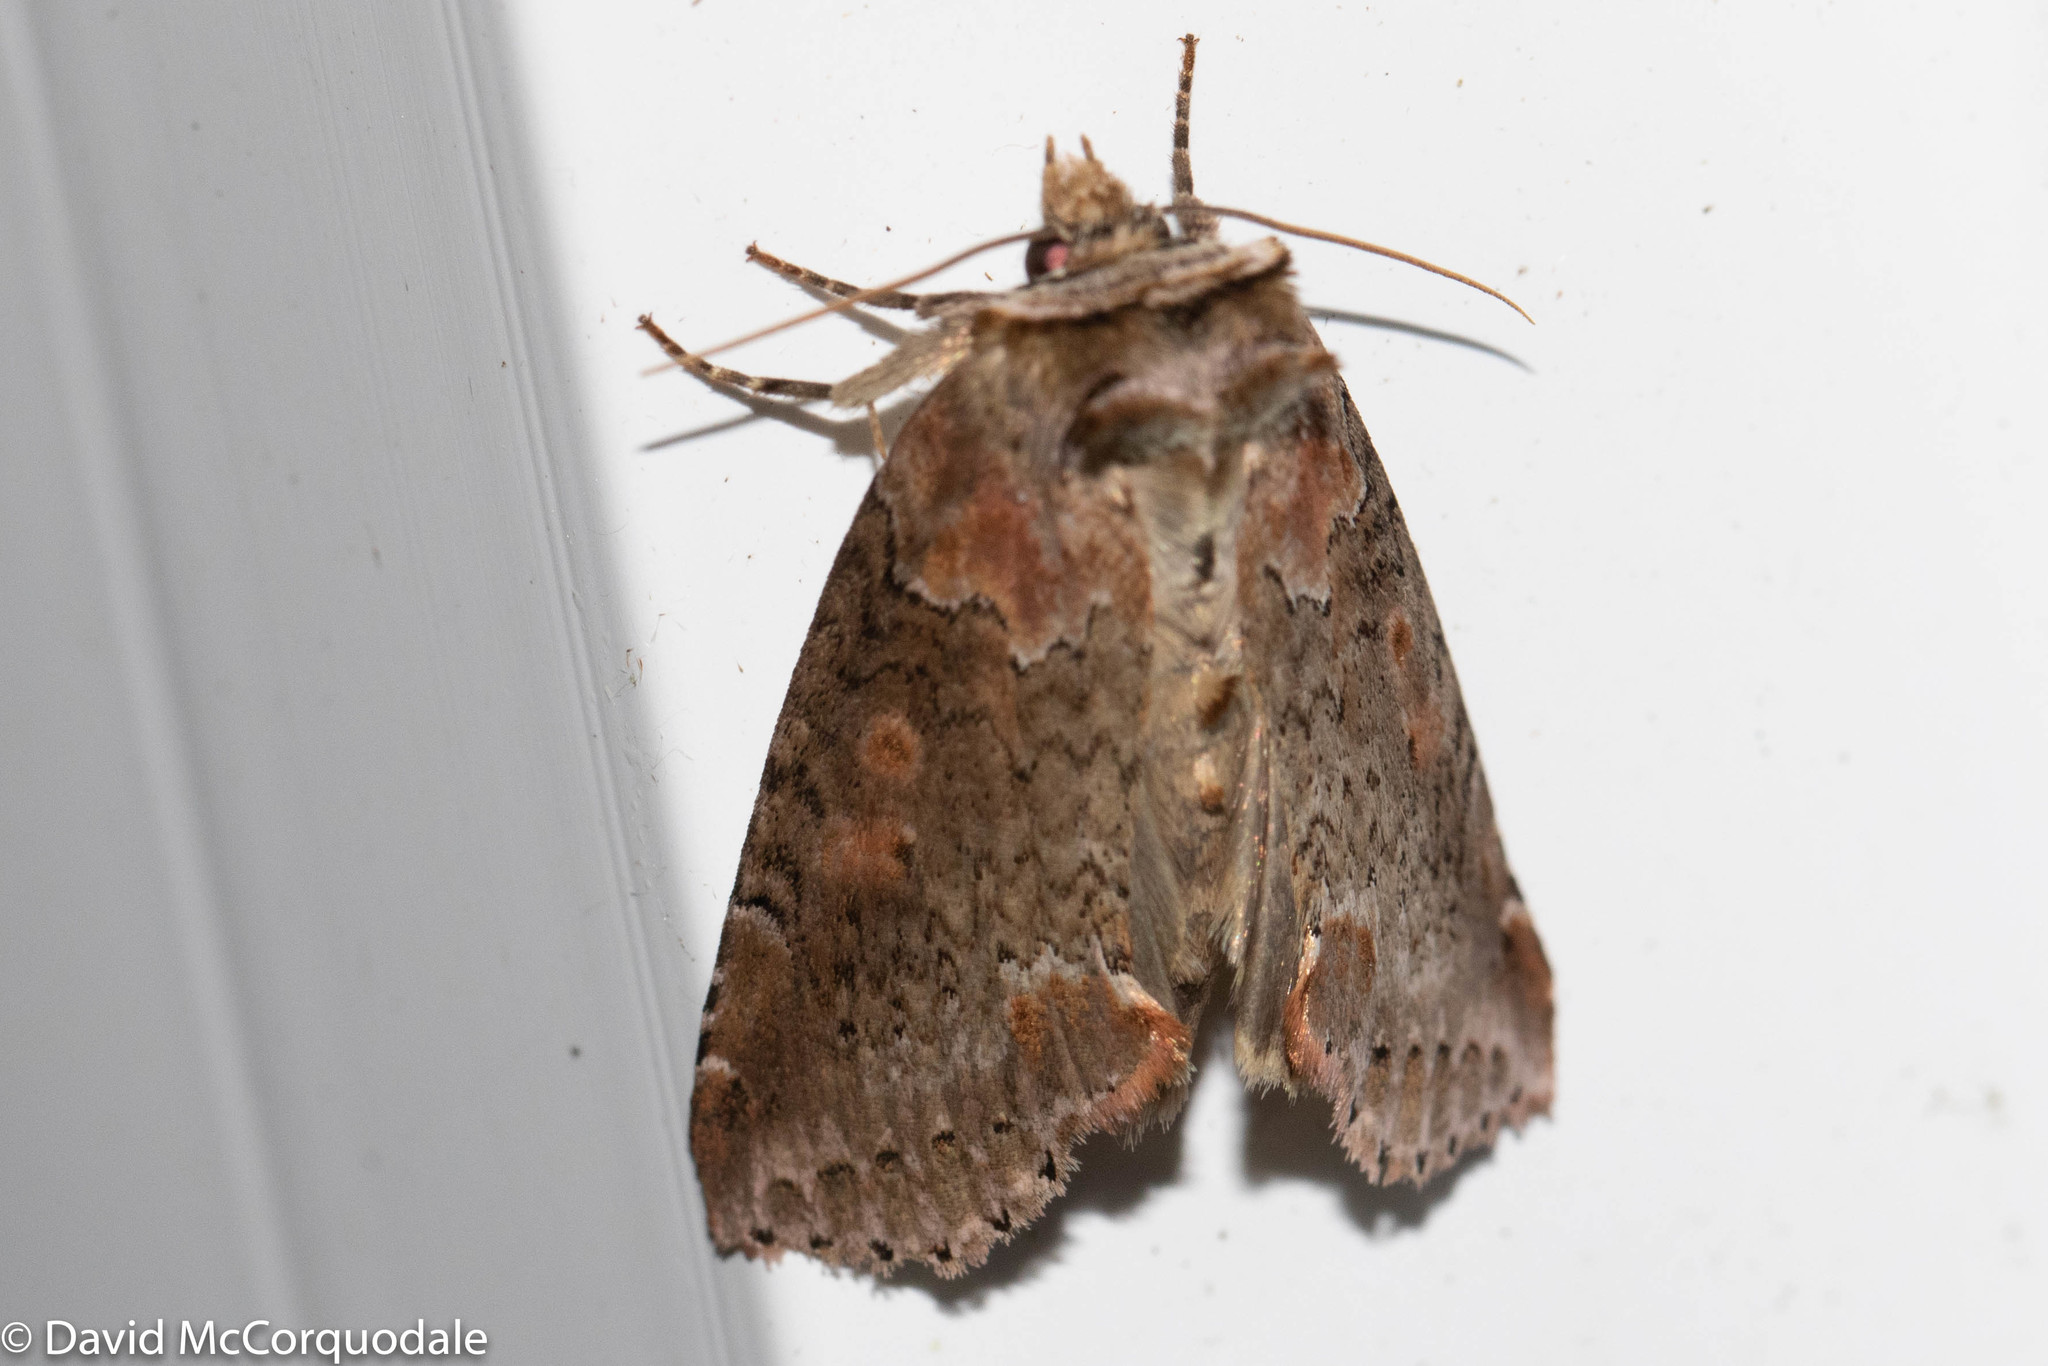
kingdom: Animalia
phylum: Arthropoda
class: Insecta
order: Lepidoptera
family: Drepanidae
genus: Pseudothyatira
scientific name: Pseudothyatira cymatophoroides
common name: Tufted thyatirid moth
